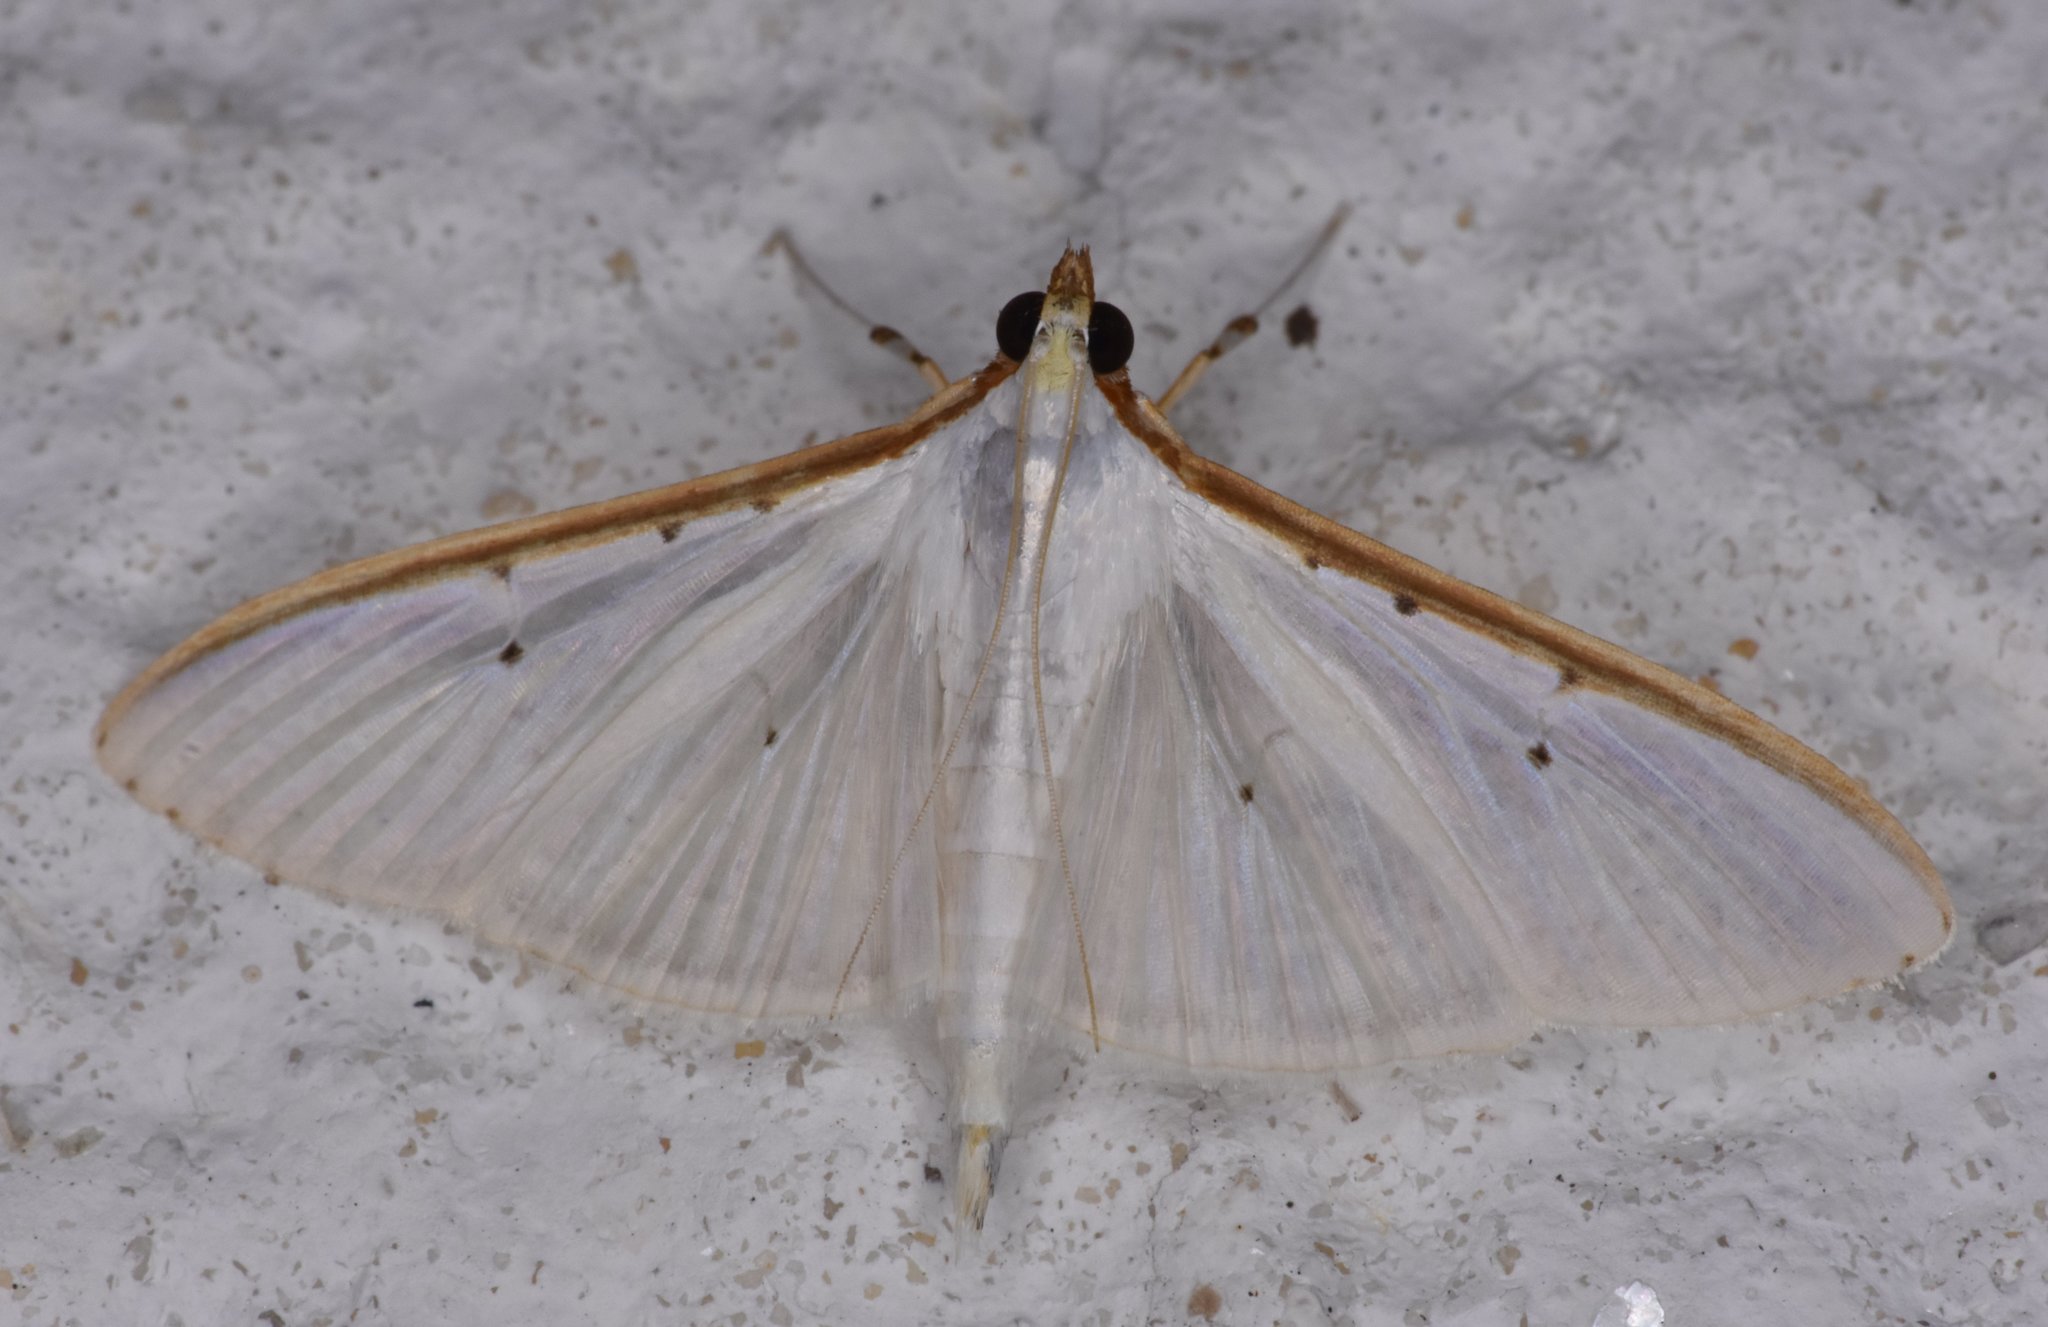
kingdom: Animalia
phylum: Arthropoda
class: Insecta
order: Lepidoptera
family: Crambidae
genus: Palpita
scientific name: Palpita quadristigmalis
